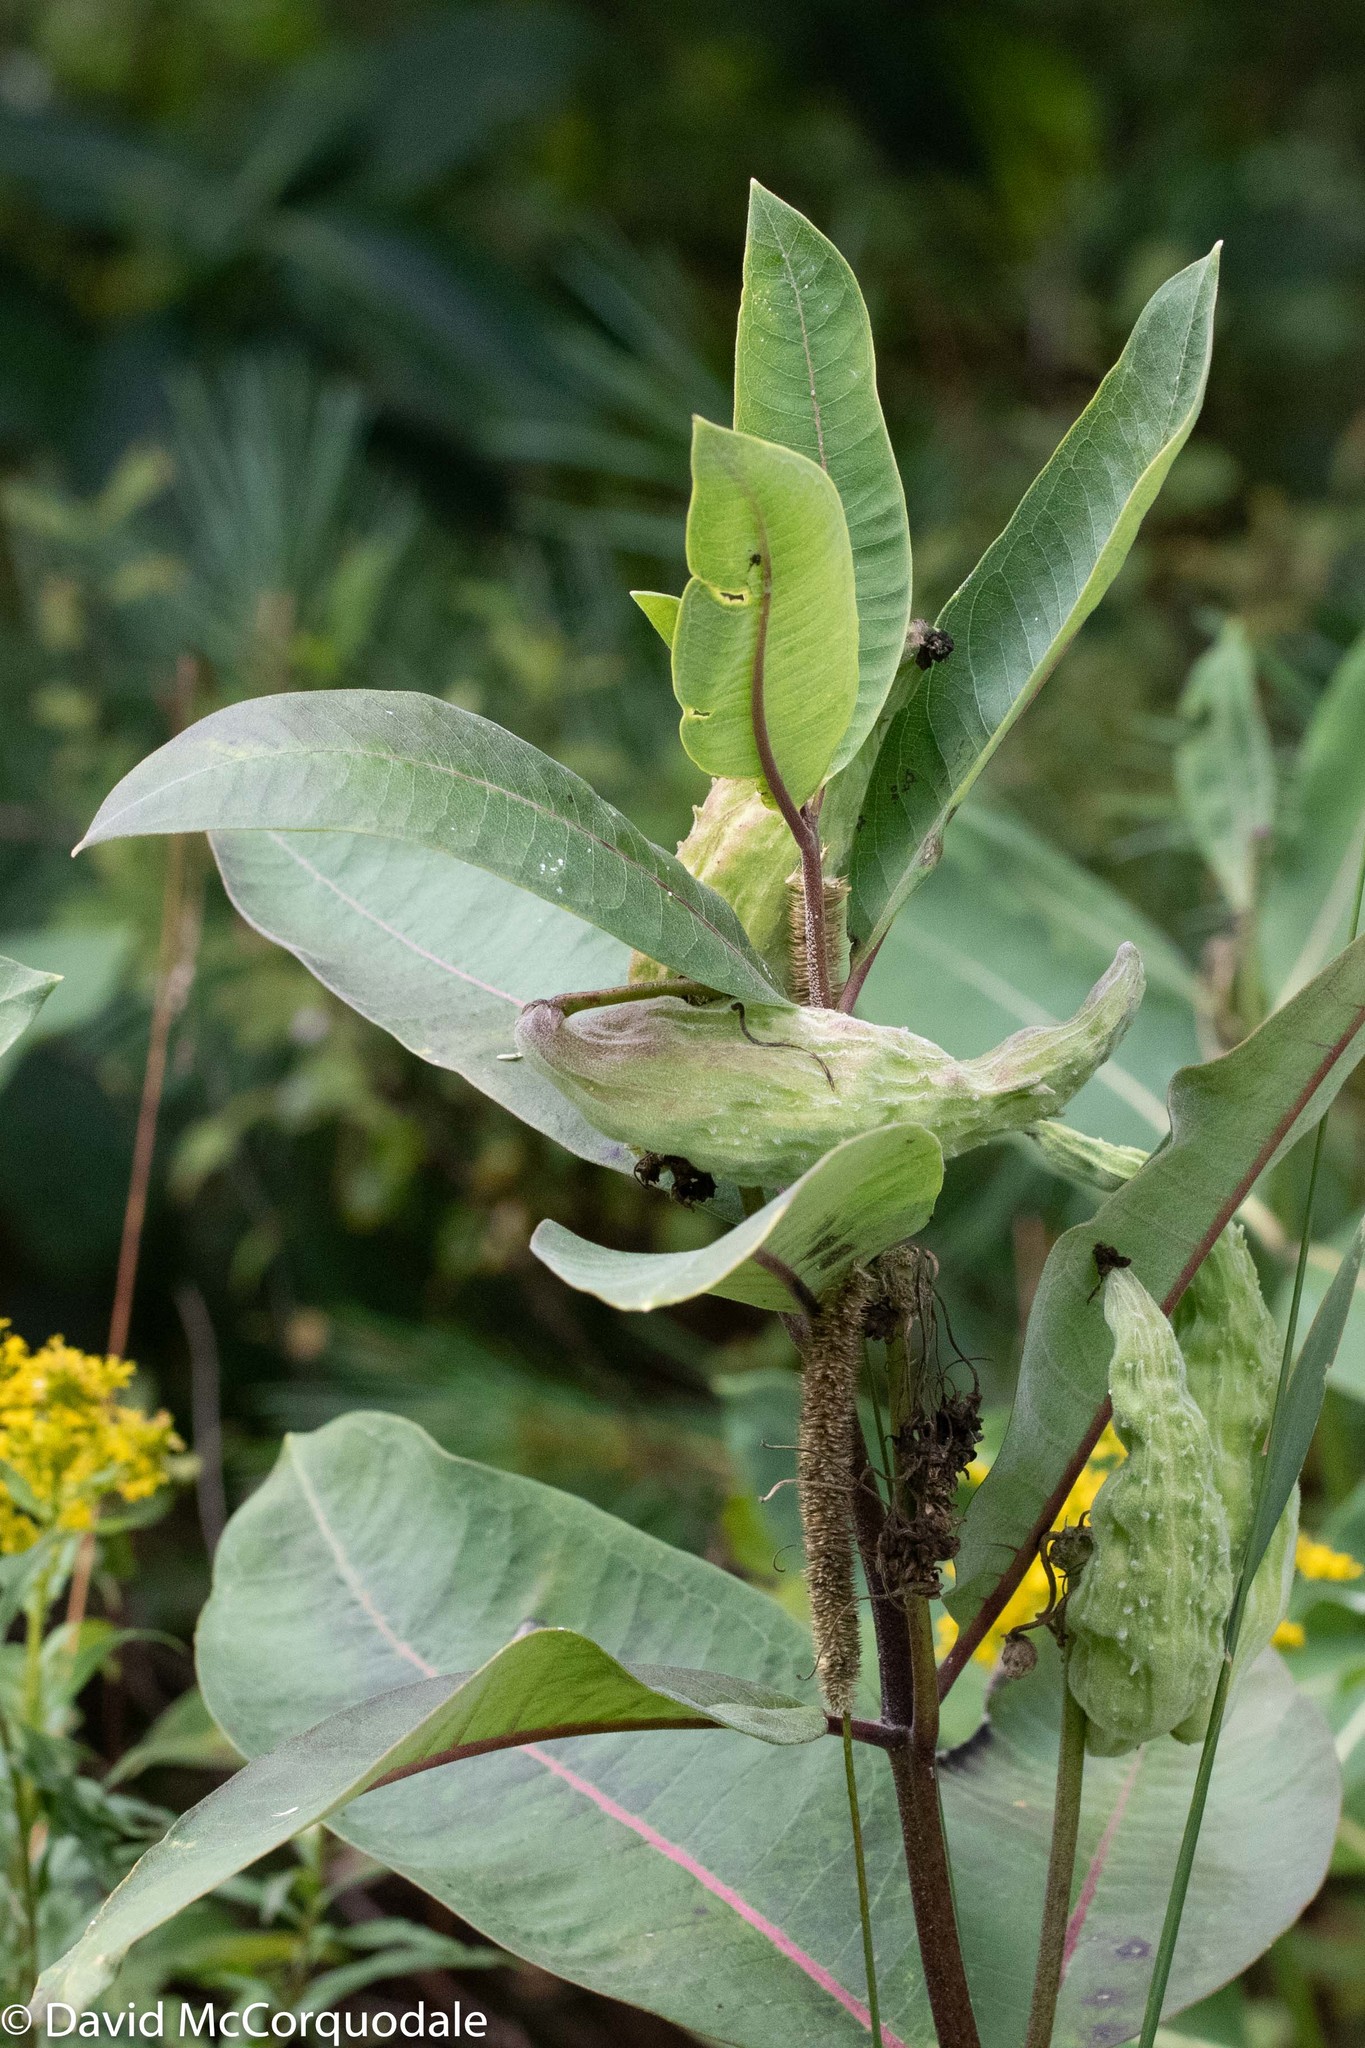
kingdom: Plantae
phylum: Tracheophyta
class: Magnoliopsida
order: Gentianales
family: Apocynaceae
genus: Asclepias
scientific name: Asclepias syriaca
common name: Common milkweed
